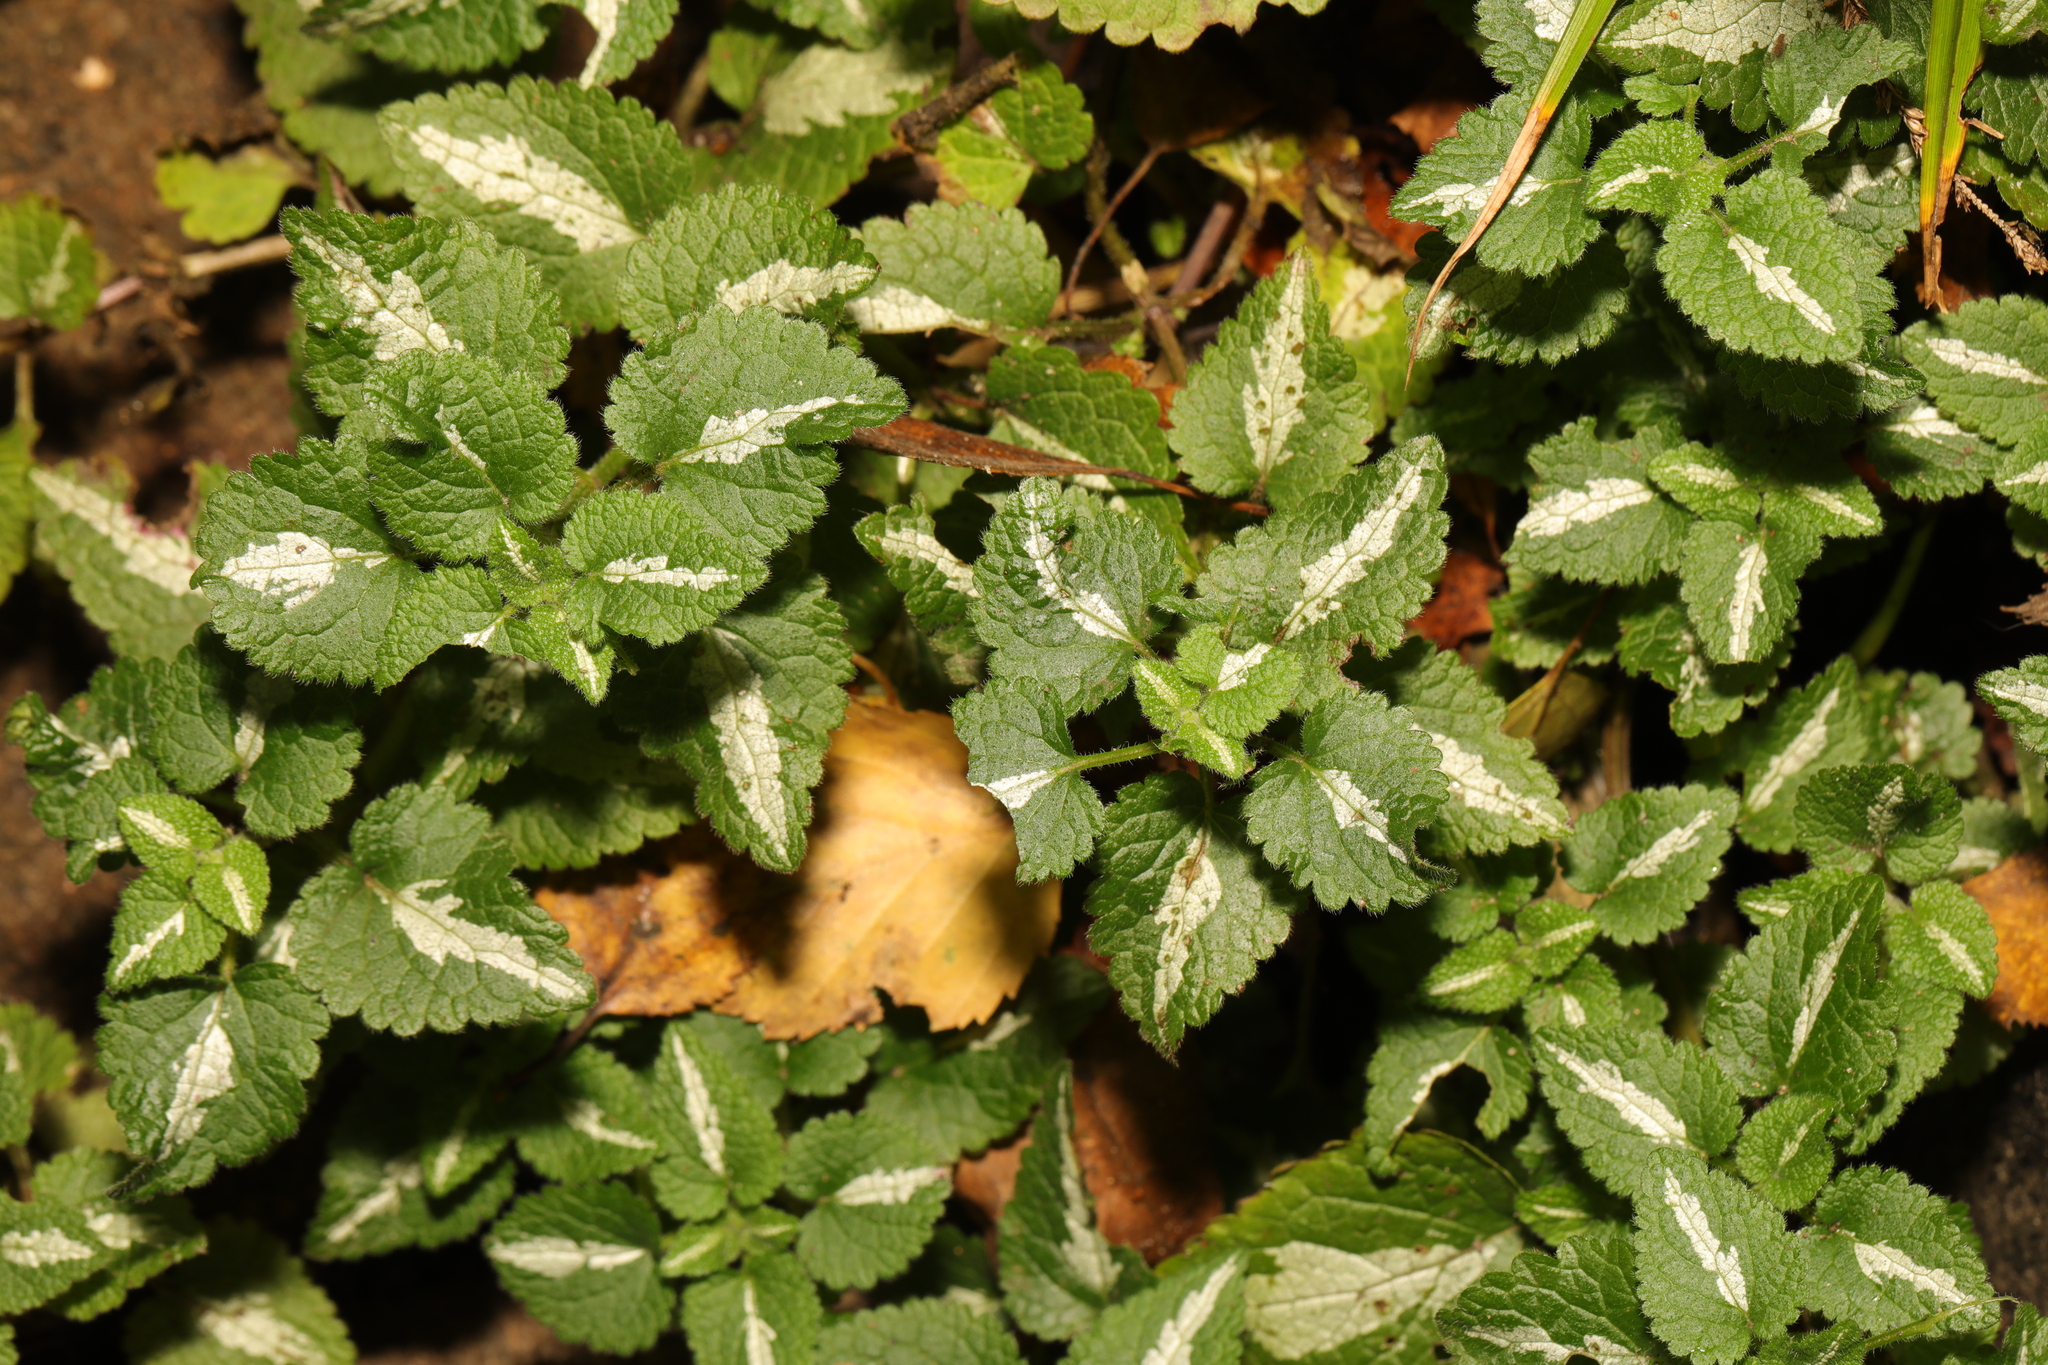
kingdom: Plantae
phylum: Tracheophyta
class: Magnoliopsida
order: Lamiales
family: Lamiaceae
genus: Lamium
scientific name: Lamium maculatum
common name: Spotted dead-nettle
